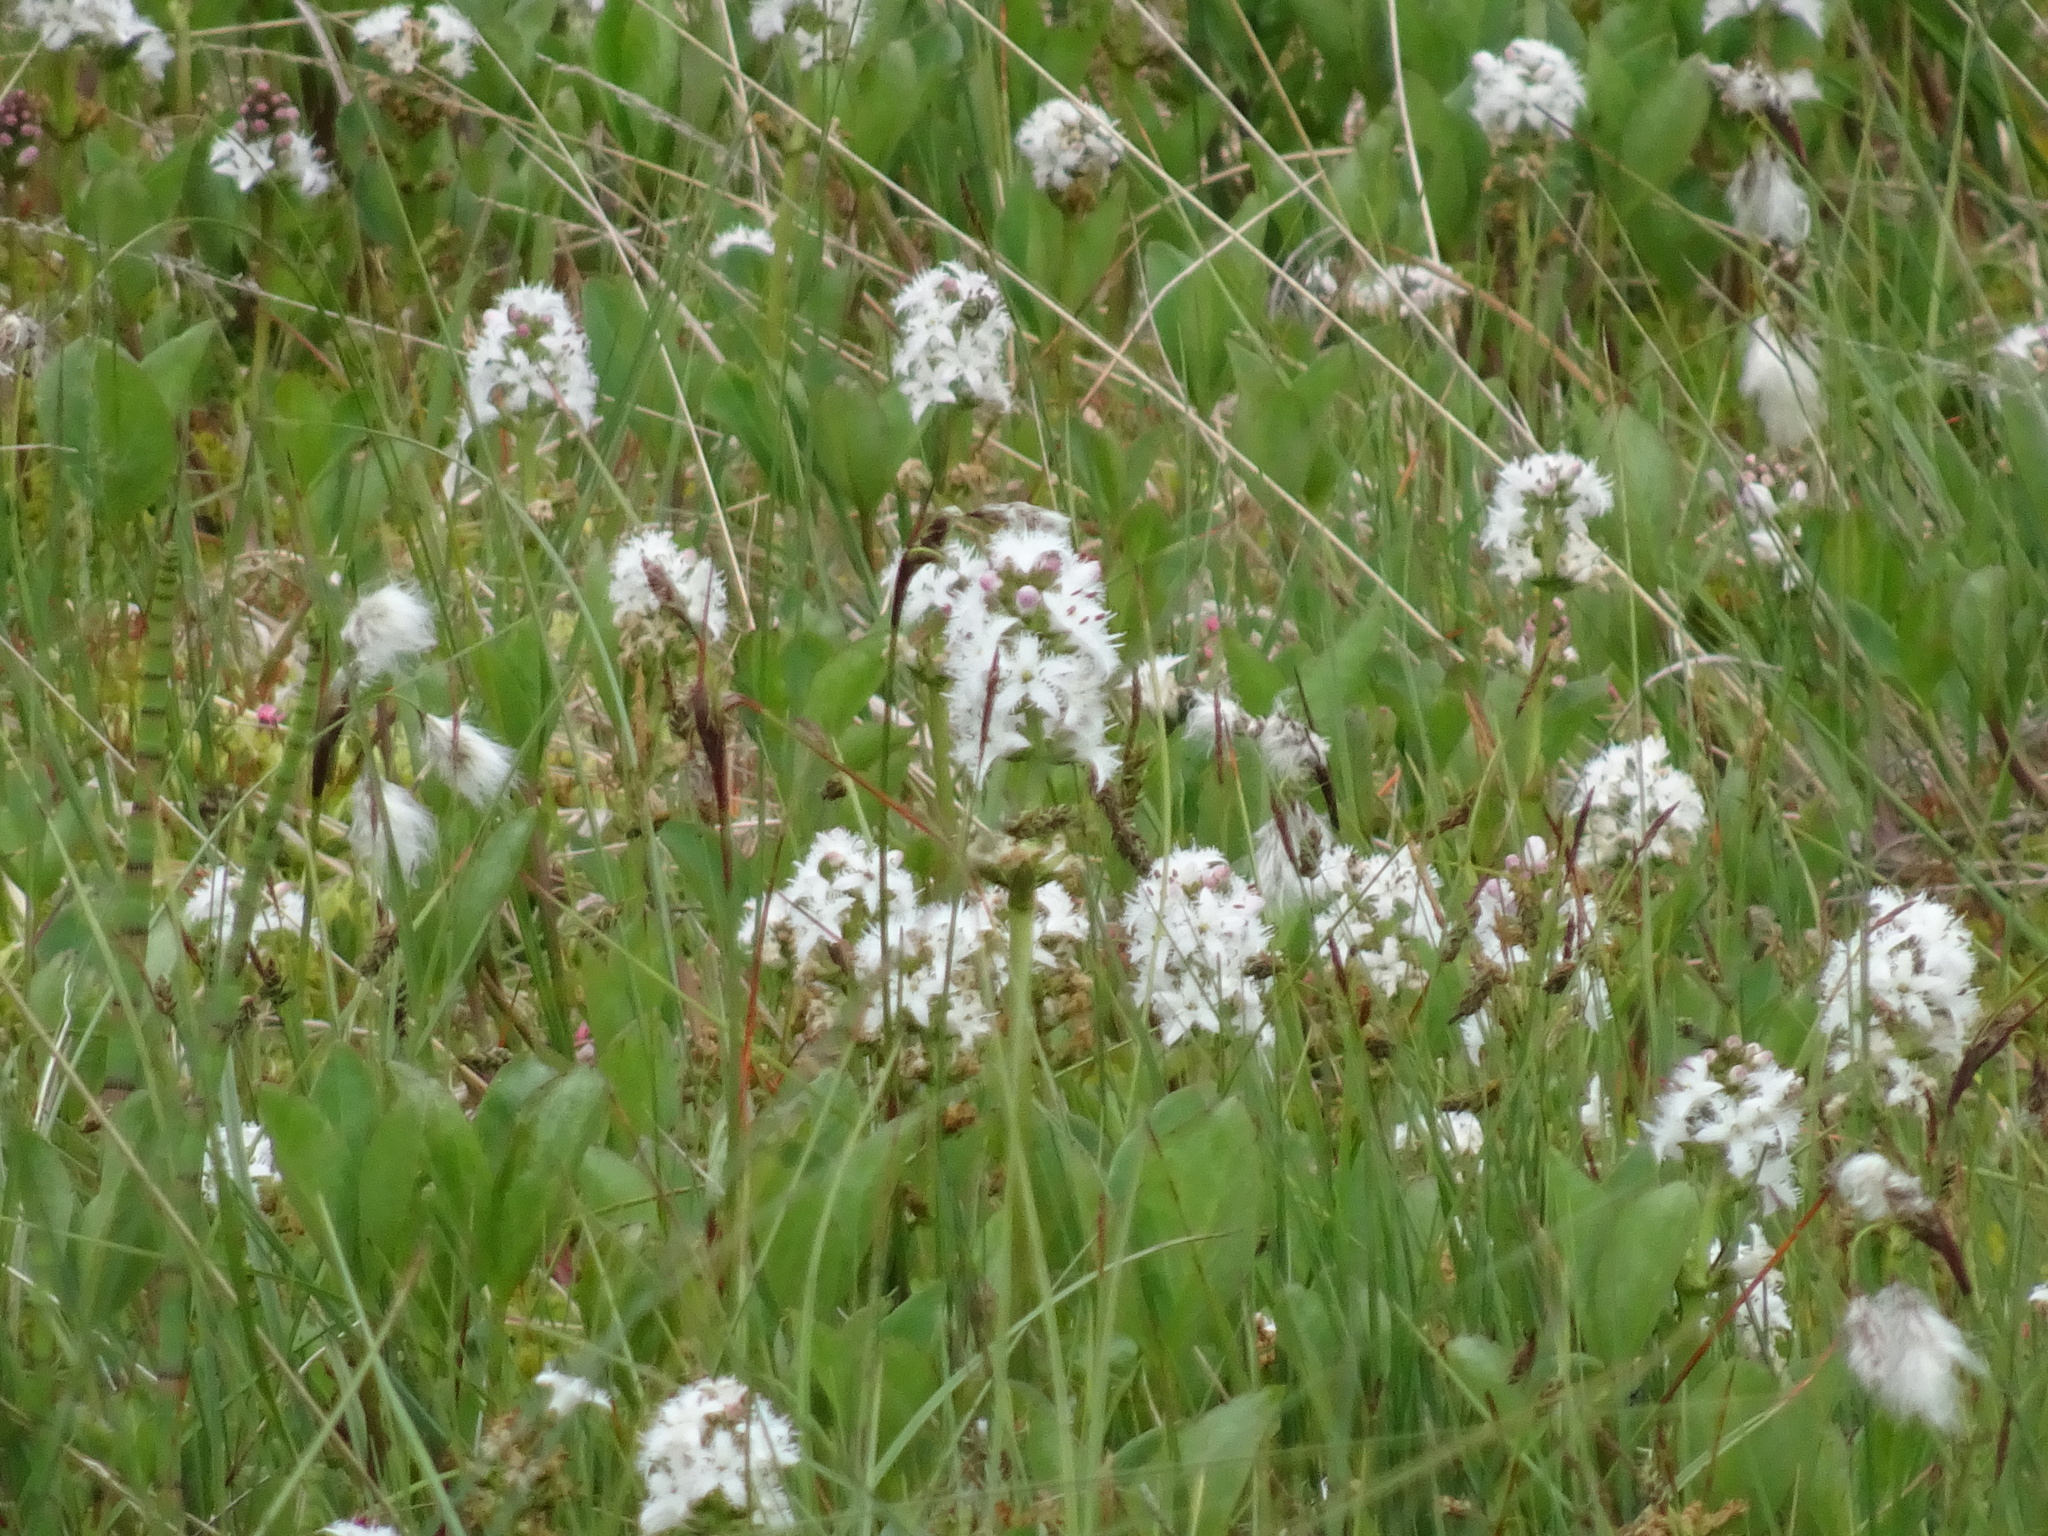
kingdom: Plantae
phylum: Tracheophyta
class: Magnoliopsida
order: Asterales
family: Menyanthaceae
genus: Menyanthes
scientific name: Menyanthes trifoliata
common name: Bogbean
